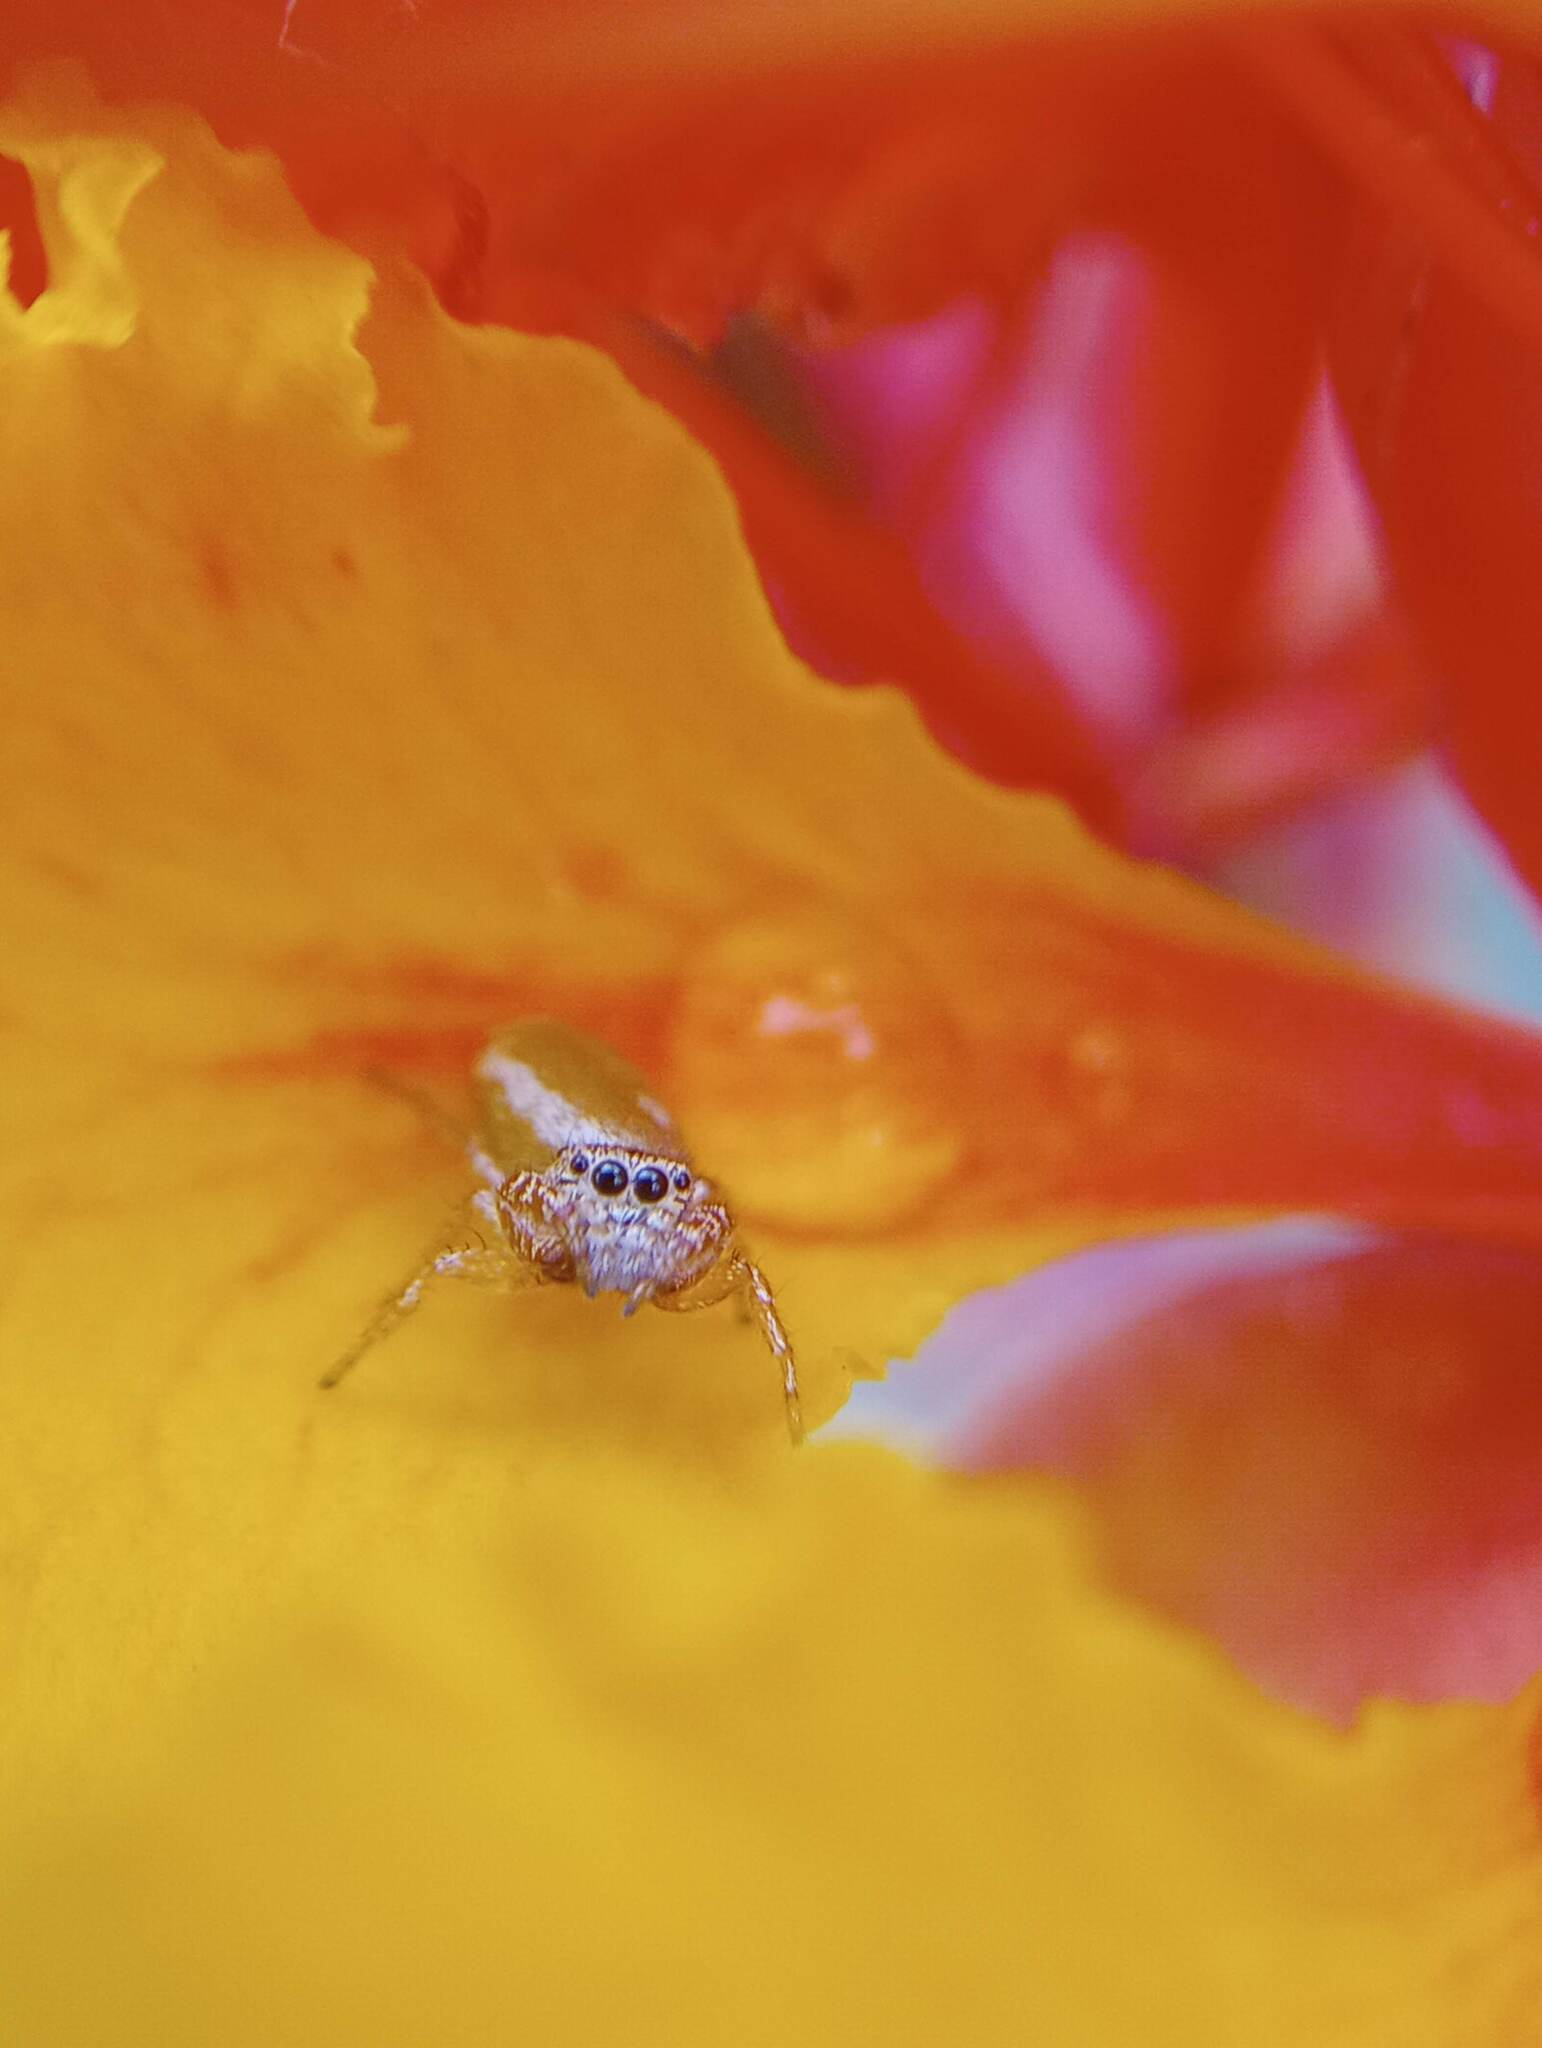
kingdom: Animalia
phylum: Arthropoda
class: Arachnida
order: Araneae
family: Salticidae
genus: Sassacus
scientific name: Sassacus vitis
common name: Jumping spiders
